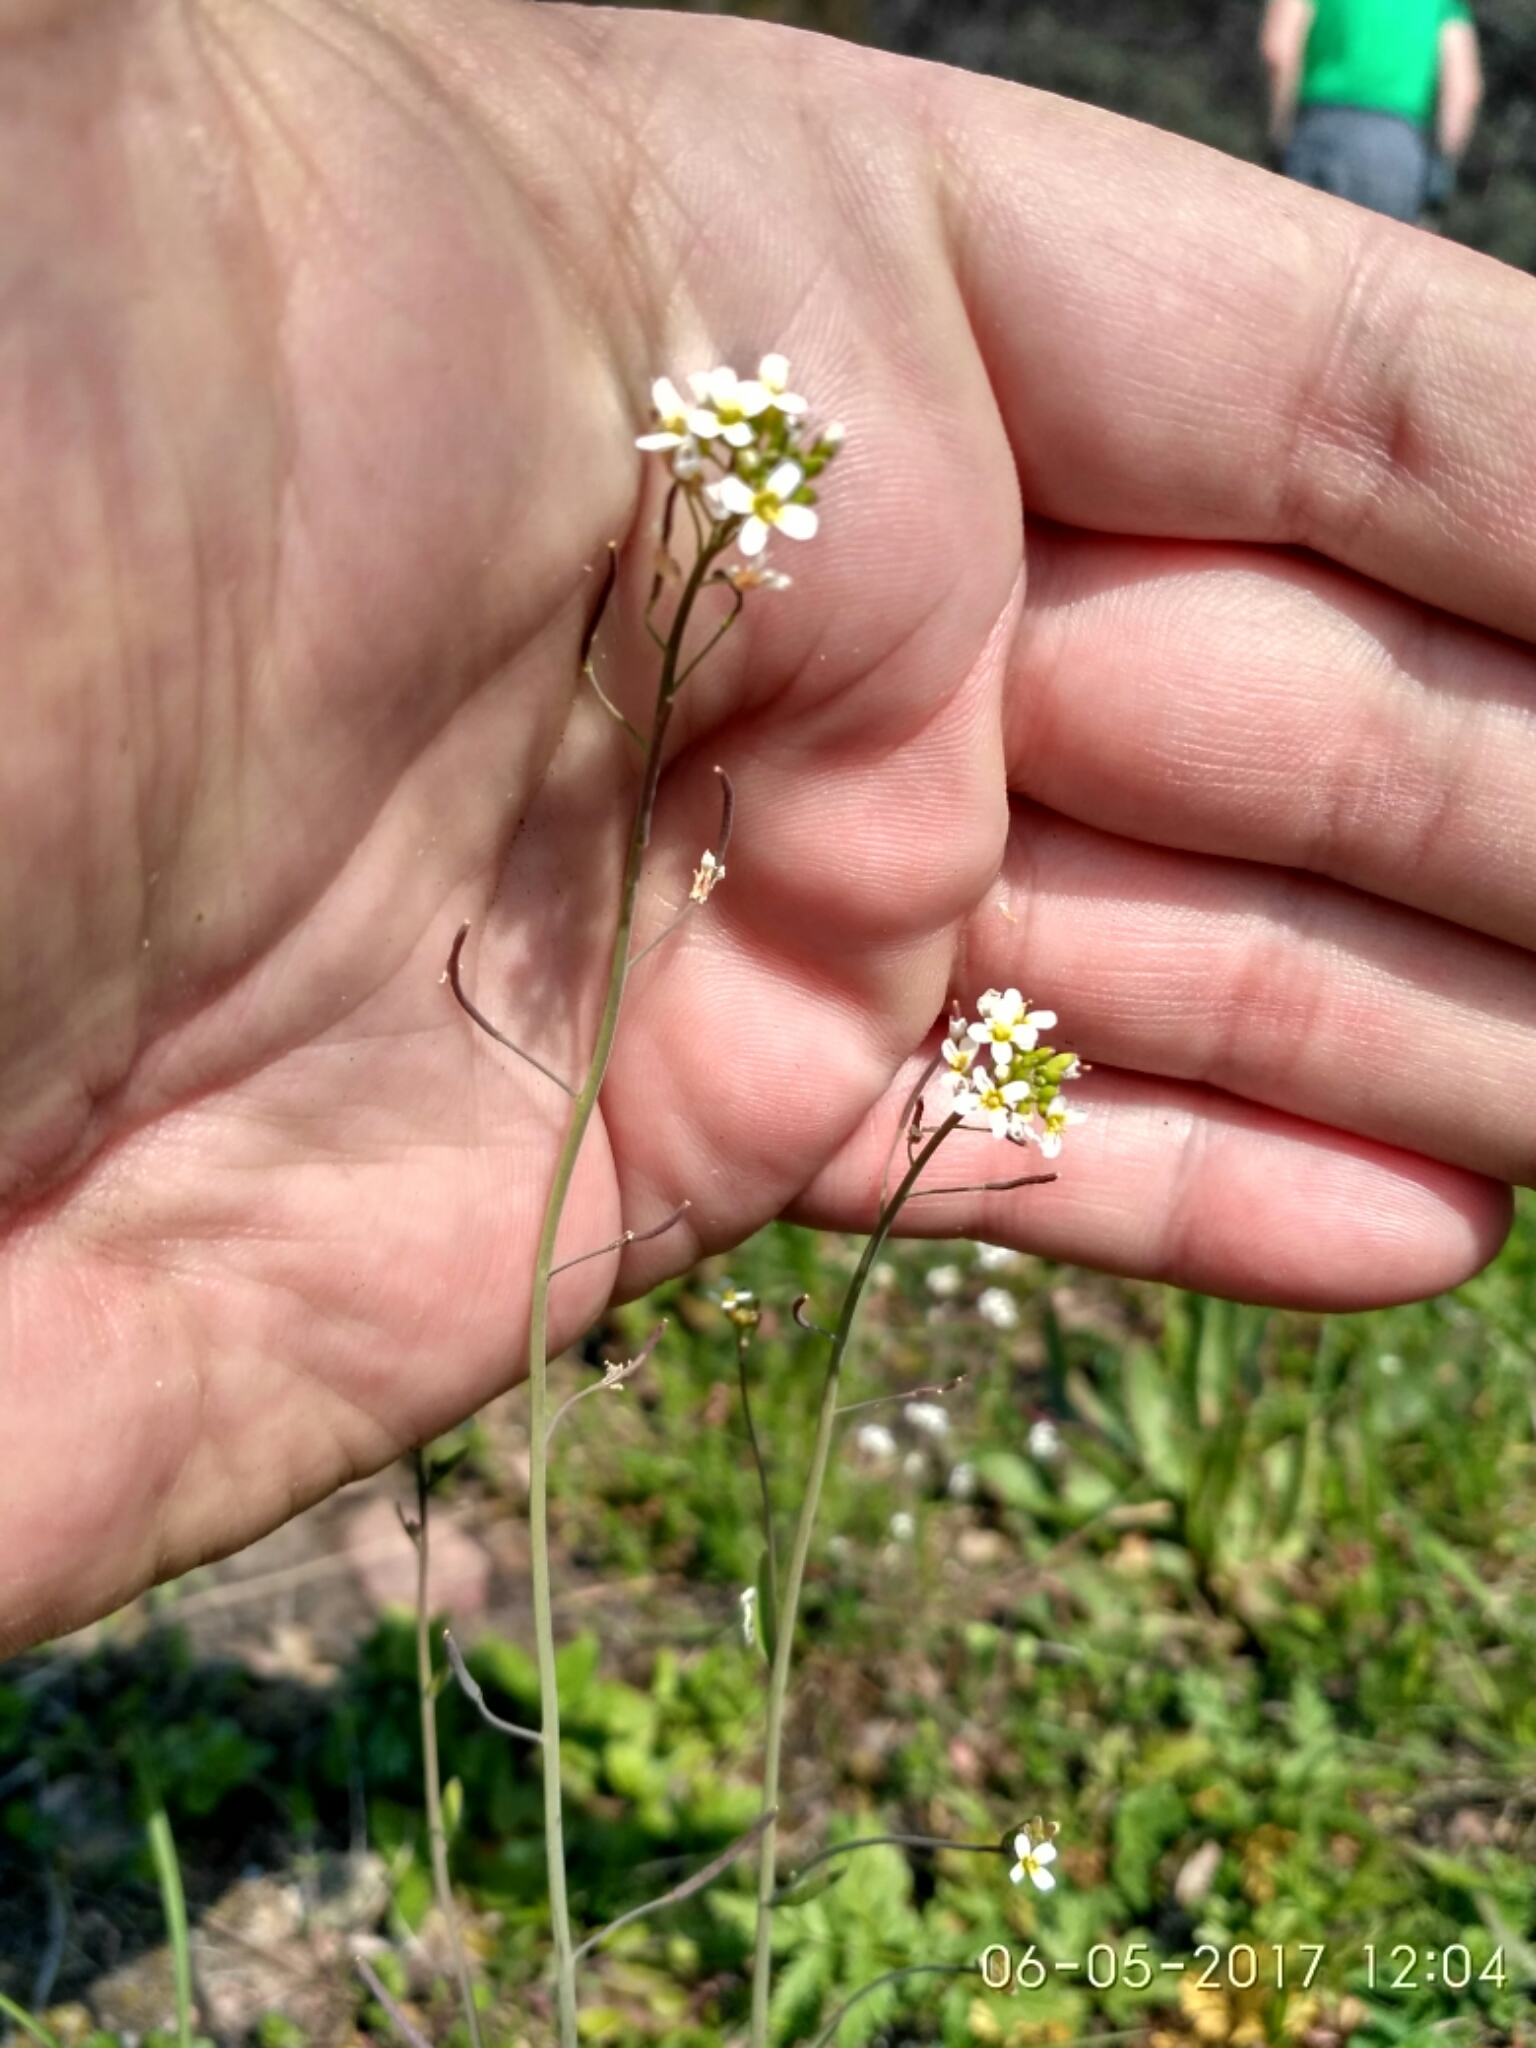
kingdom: Plantae
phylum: Tracheophyta
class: Magnoliopsida
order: Brassicales
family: Brassicaceae
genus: Arabidopsis
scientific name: Arabidopsis thaliana
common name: Thale cress
